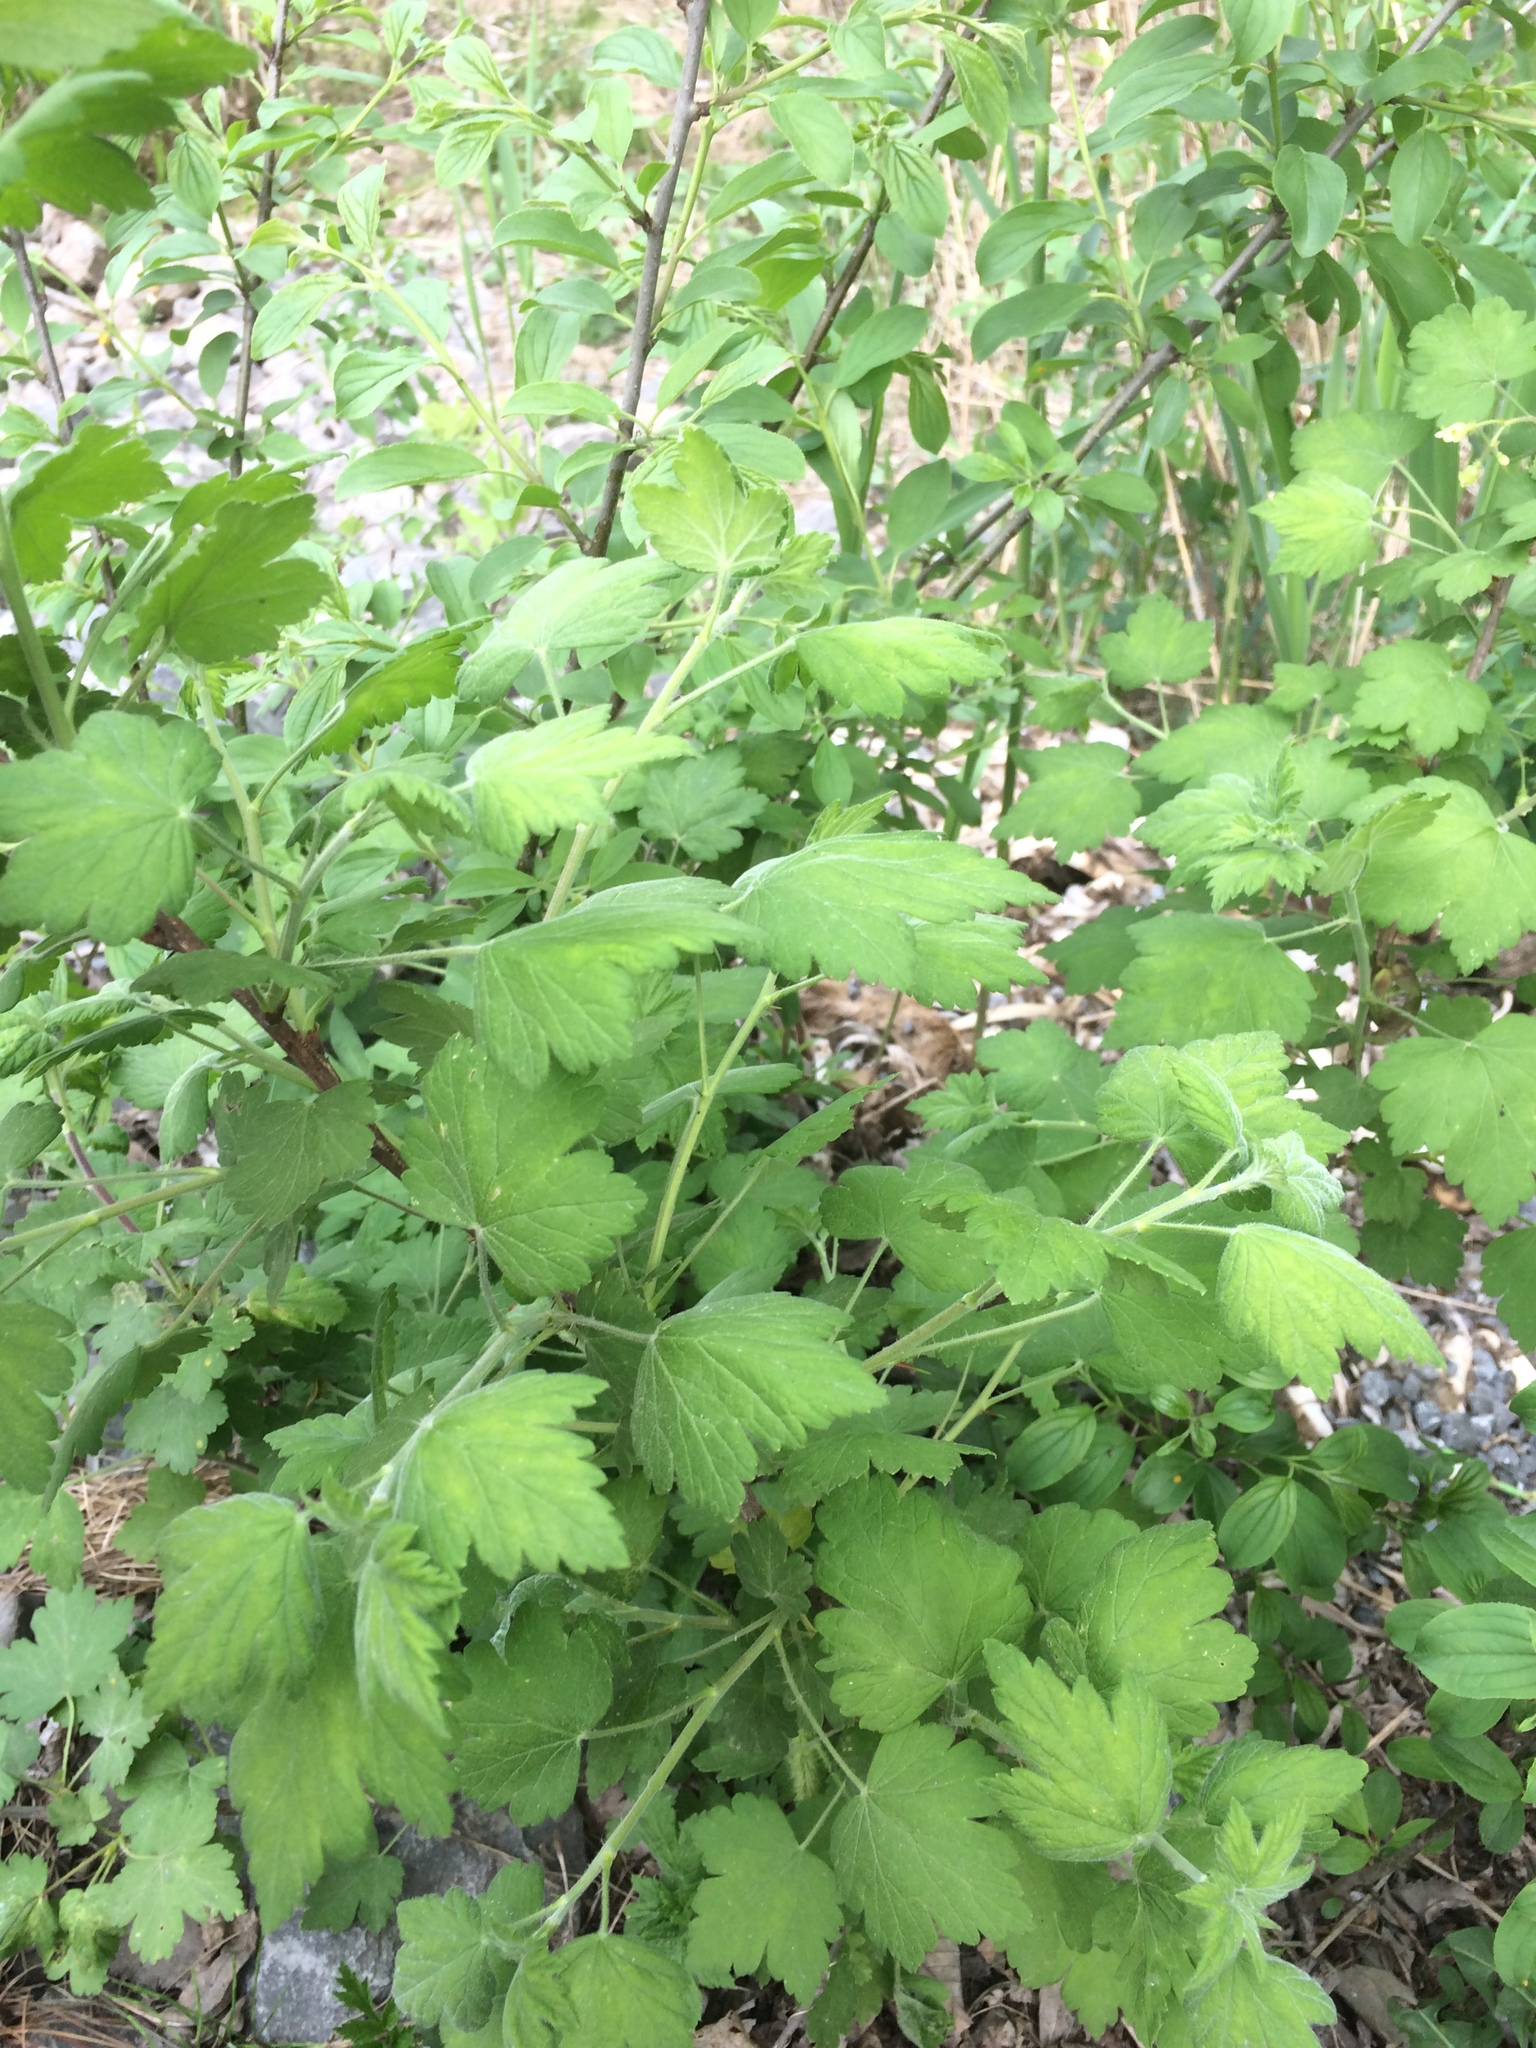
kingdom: Plantae
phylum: Tracheophyta
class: Magnoliopsida
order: Saxifragales
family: Grossulariaceae
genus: Ribes
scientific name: Ribes cynosbati
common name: American gooseberry
